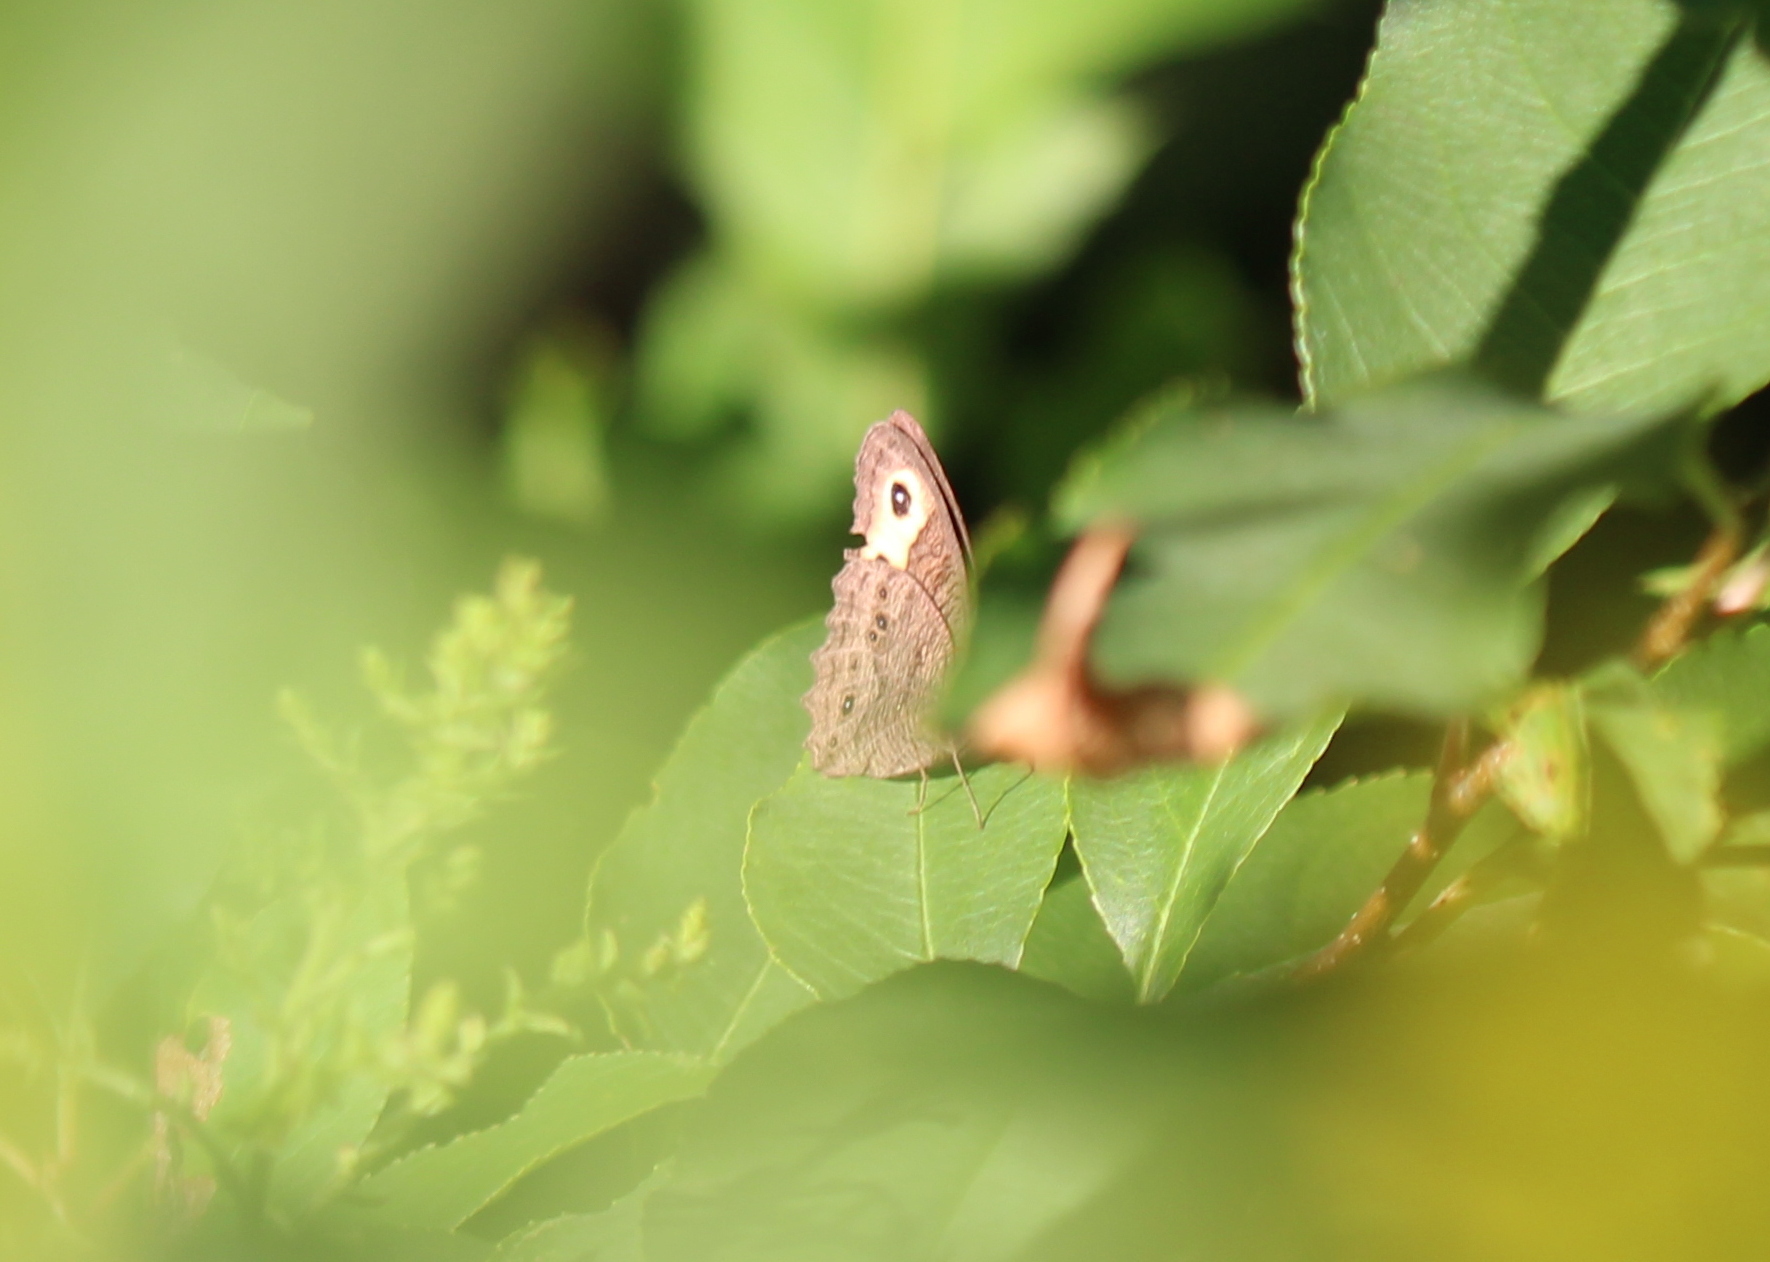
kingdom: Animalia
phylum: Arthropoda
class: Insecta
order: Lepidoptera
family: Nymphalidae
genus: Cercyonis
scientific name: Cercyonis pegala
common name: Common wood-nymph
